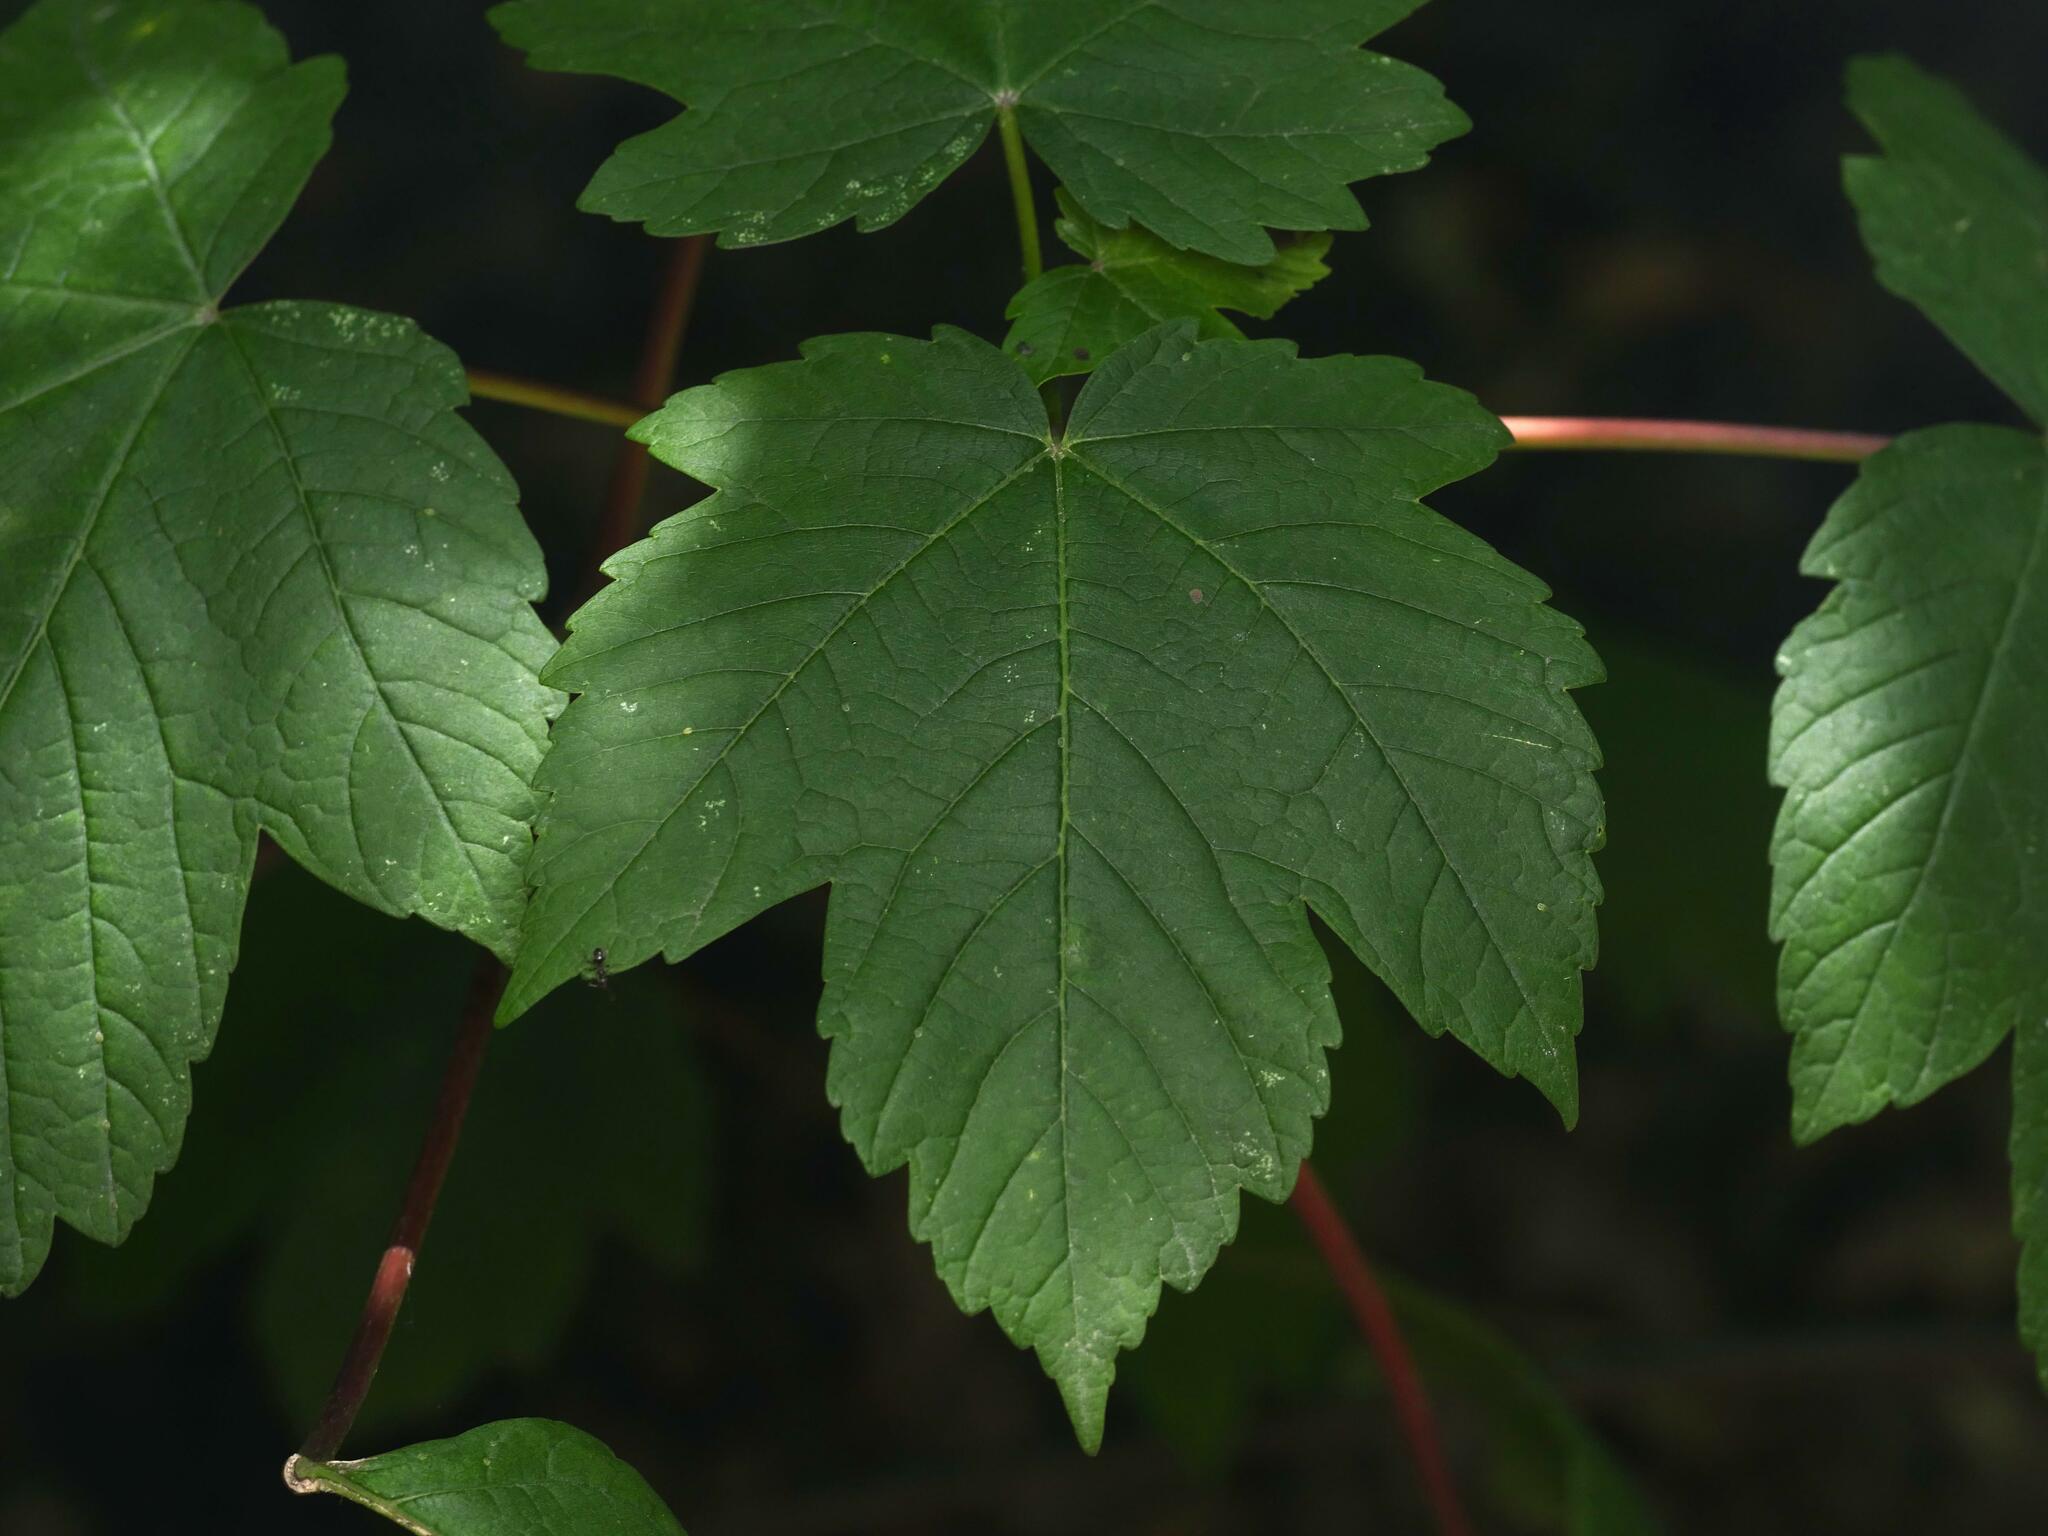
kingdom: Plantae
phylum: Tracheophyta
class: Magnoliopsida
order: Sapindales
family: Sapindaceae
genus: Acer
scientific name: Acer pseudoplatanus
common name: Sycamore
